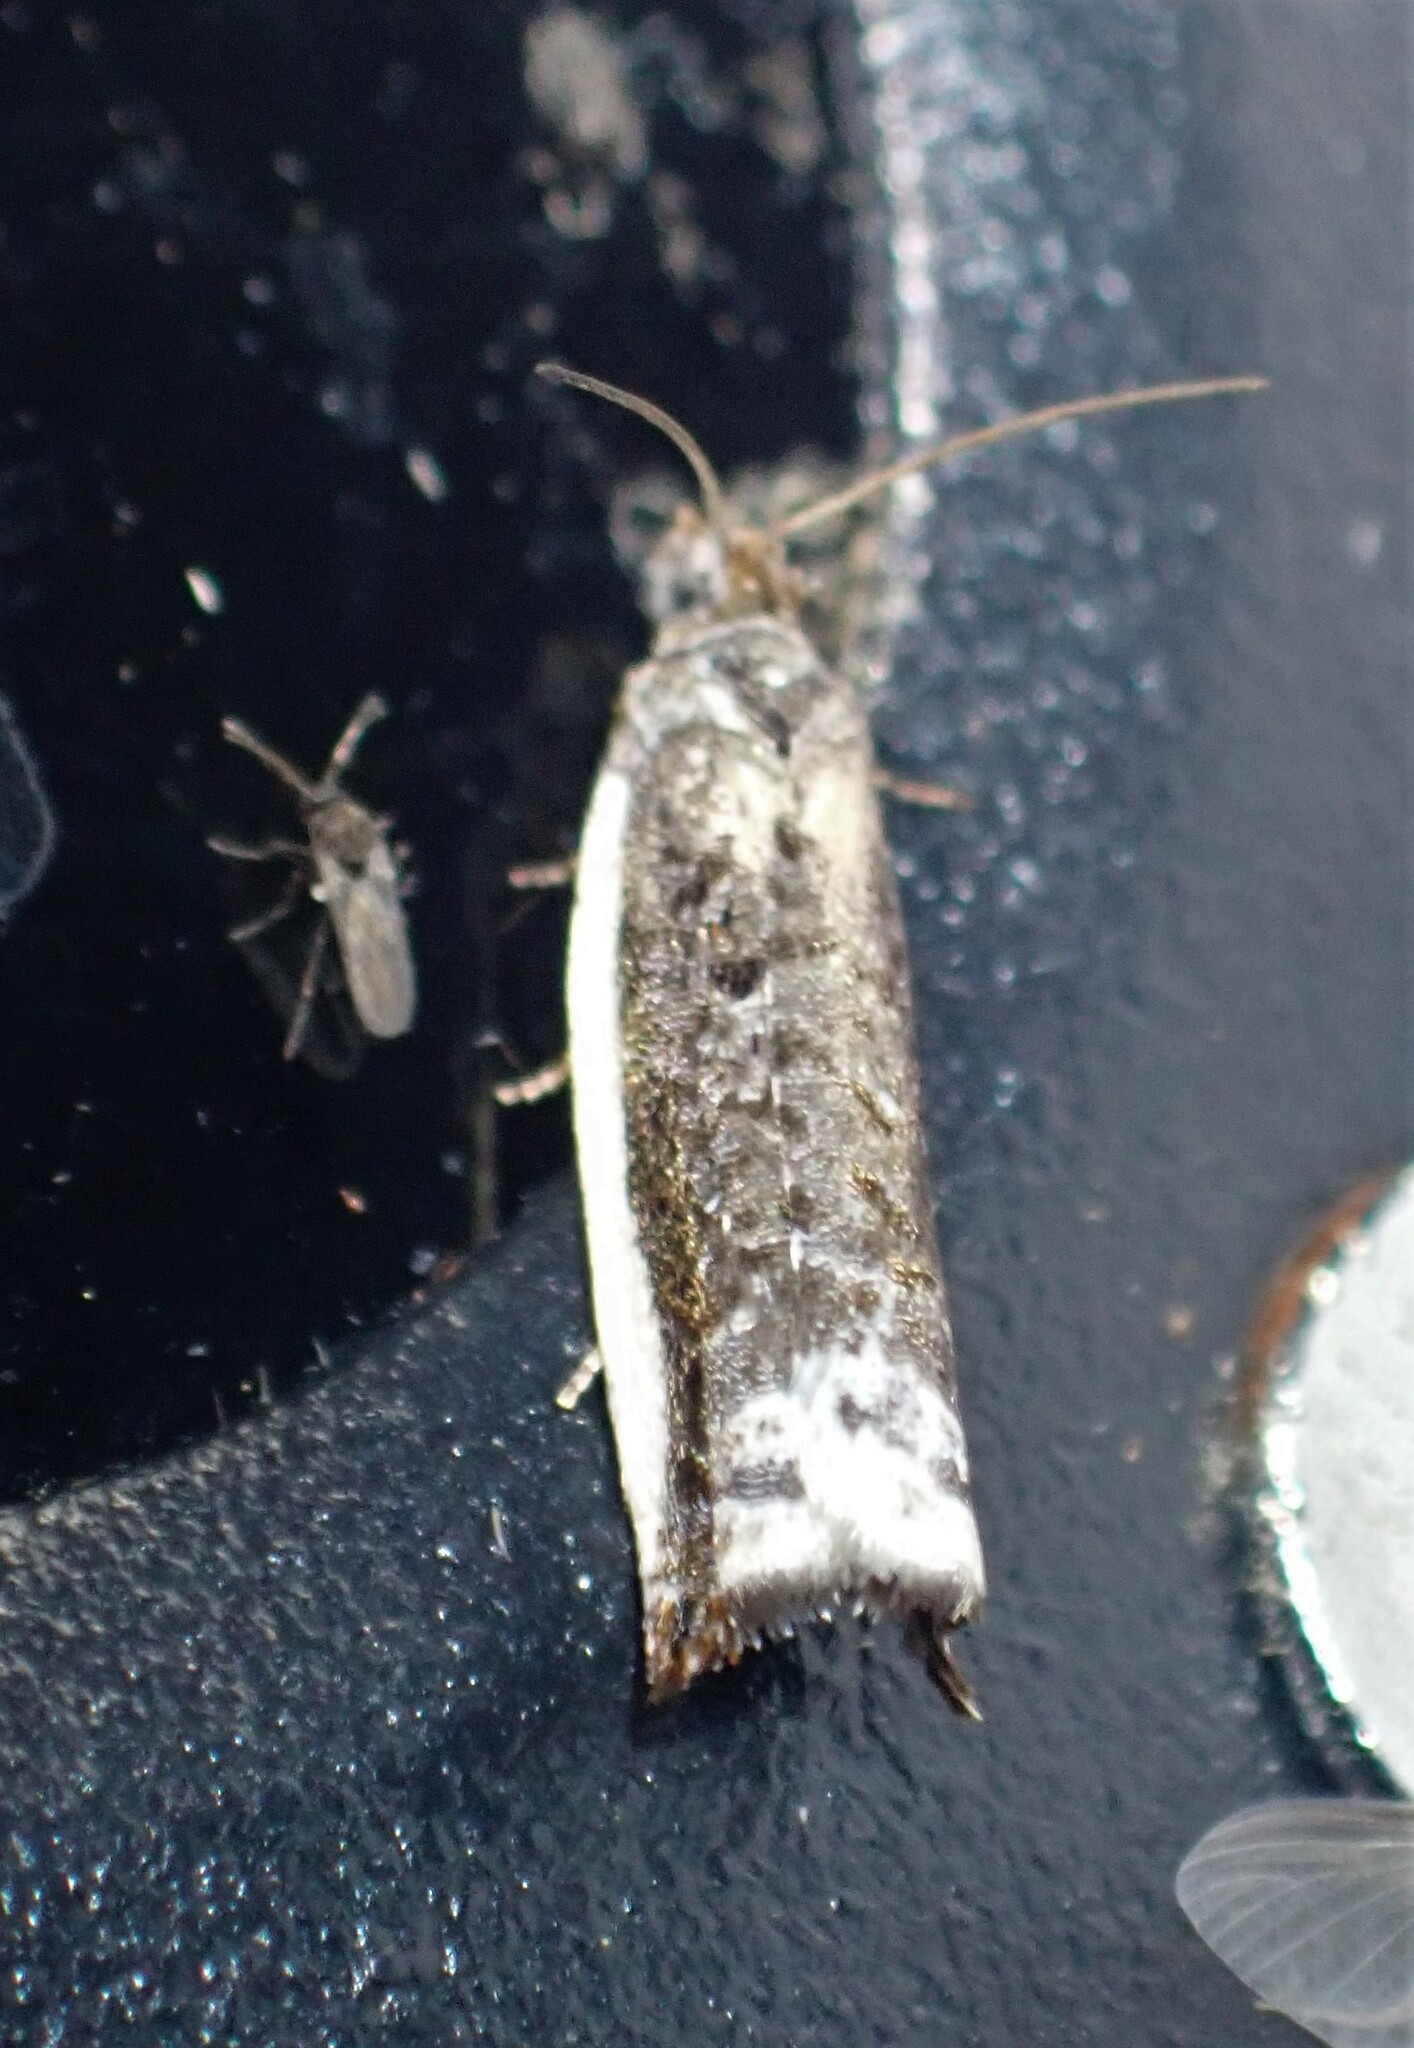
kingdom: Animalia
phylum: Arthropoda
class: Insecta
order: Lepidoptera
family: Tortricidae
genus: Ancylis
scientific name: Ancylis albacostana
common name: White-edged ancylis moth
